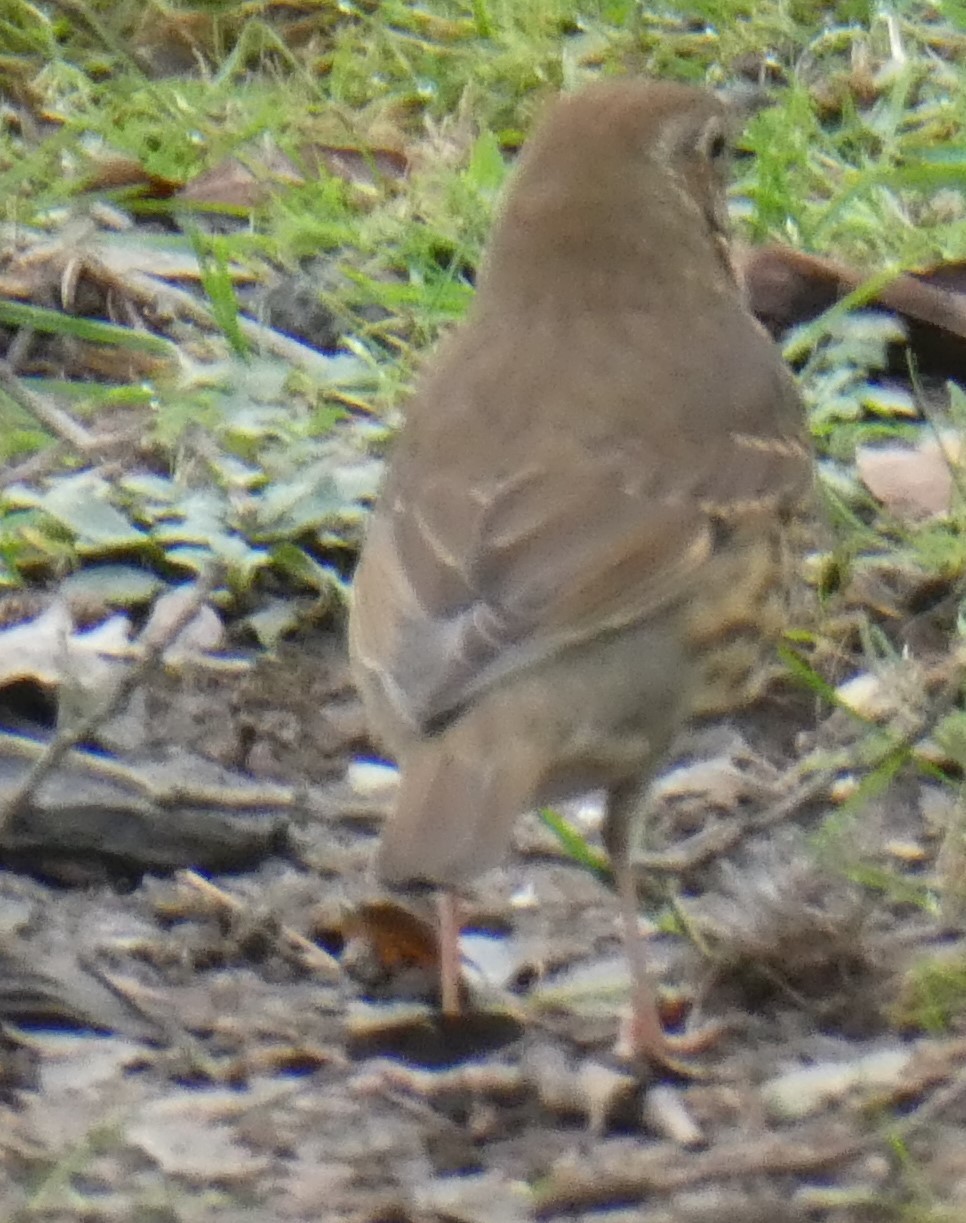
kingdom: Animalia
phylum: Chordata
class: Aves
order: Passeriformes
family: Turdidae
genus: Turdus
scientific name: Turdus philomelos
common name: Song thrush
